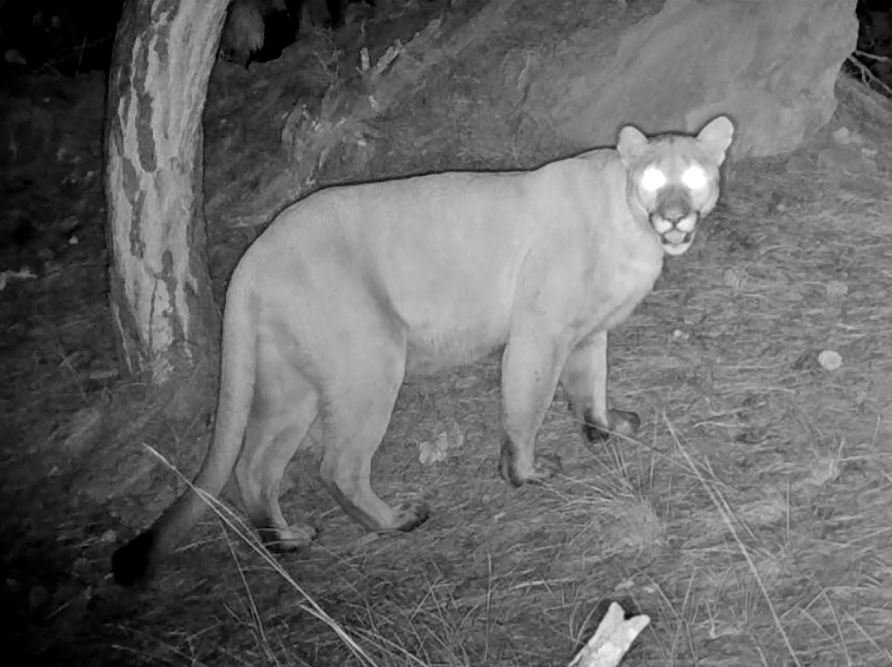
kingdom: Animalia
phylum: Chordata
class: Mammalia
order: Carnivora
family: Felidae
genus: Puma
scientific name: Puma concolor
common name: Puma
